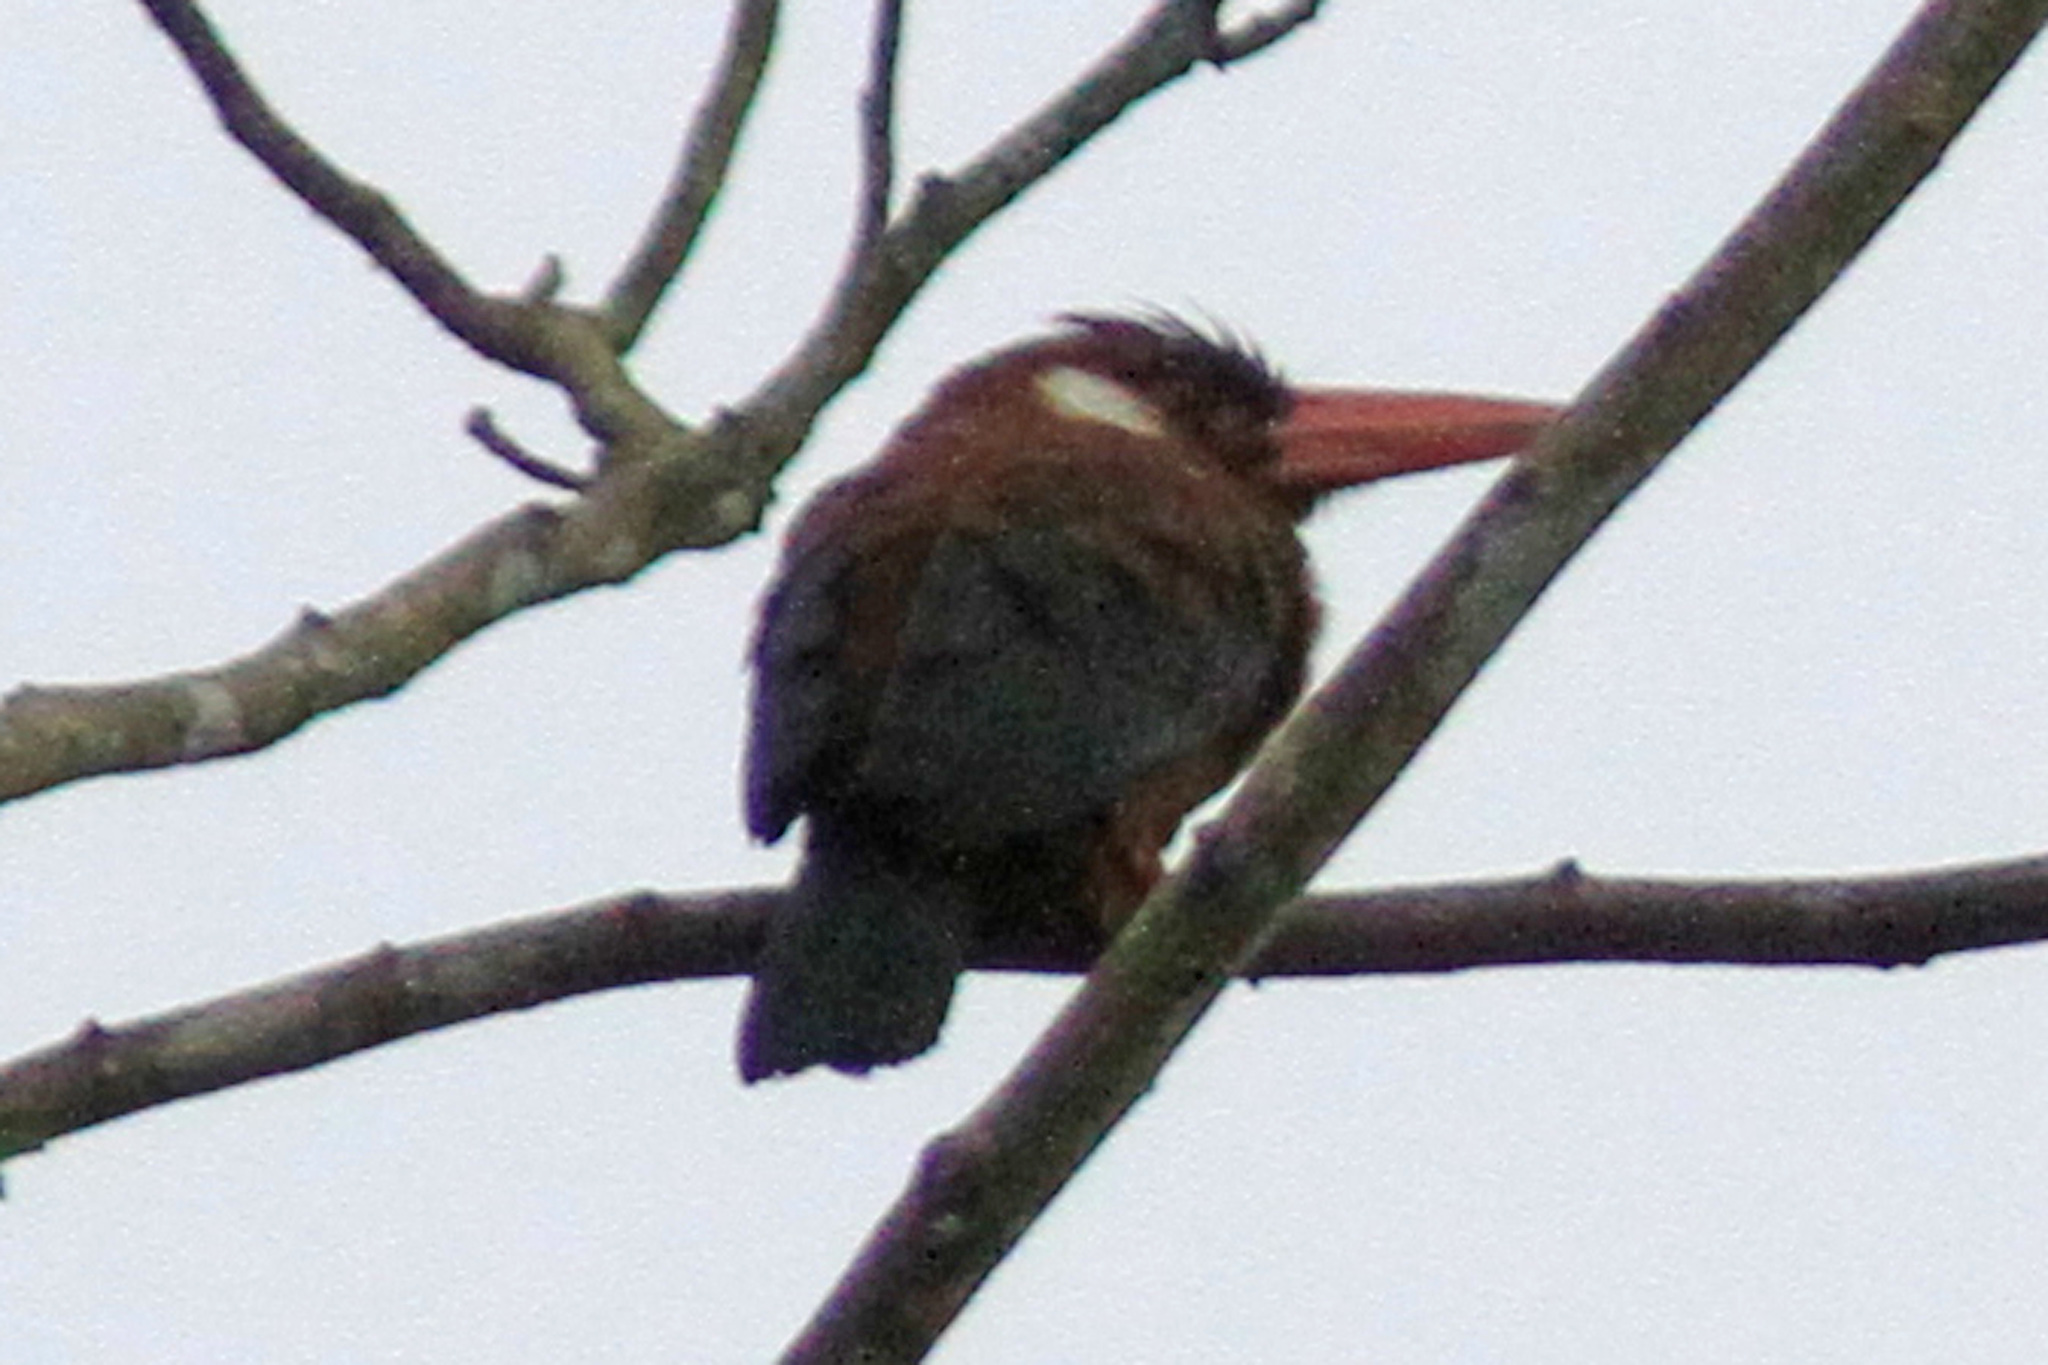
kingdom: Animalia
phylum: Chordata
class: Aves
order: Piciformes
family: Galbulidae
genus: Galbalcyrhynchus
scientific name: Galbalcyrhynchus leucotis
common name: White-eared jacamar
